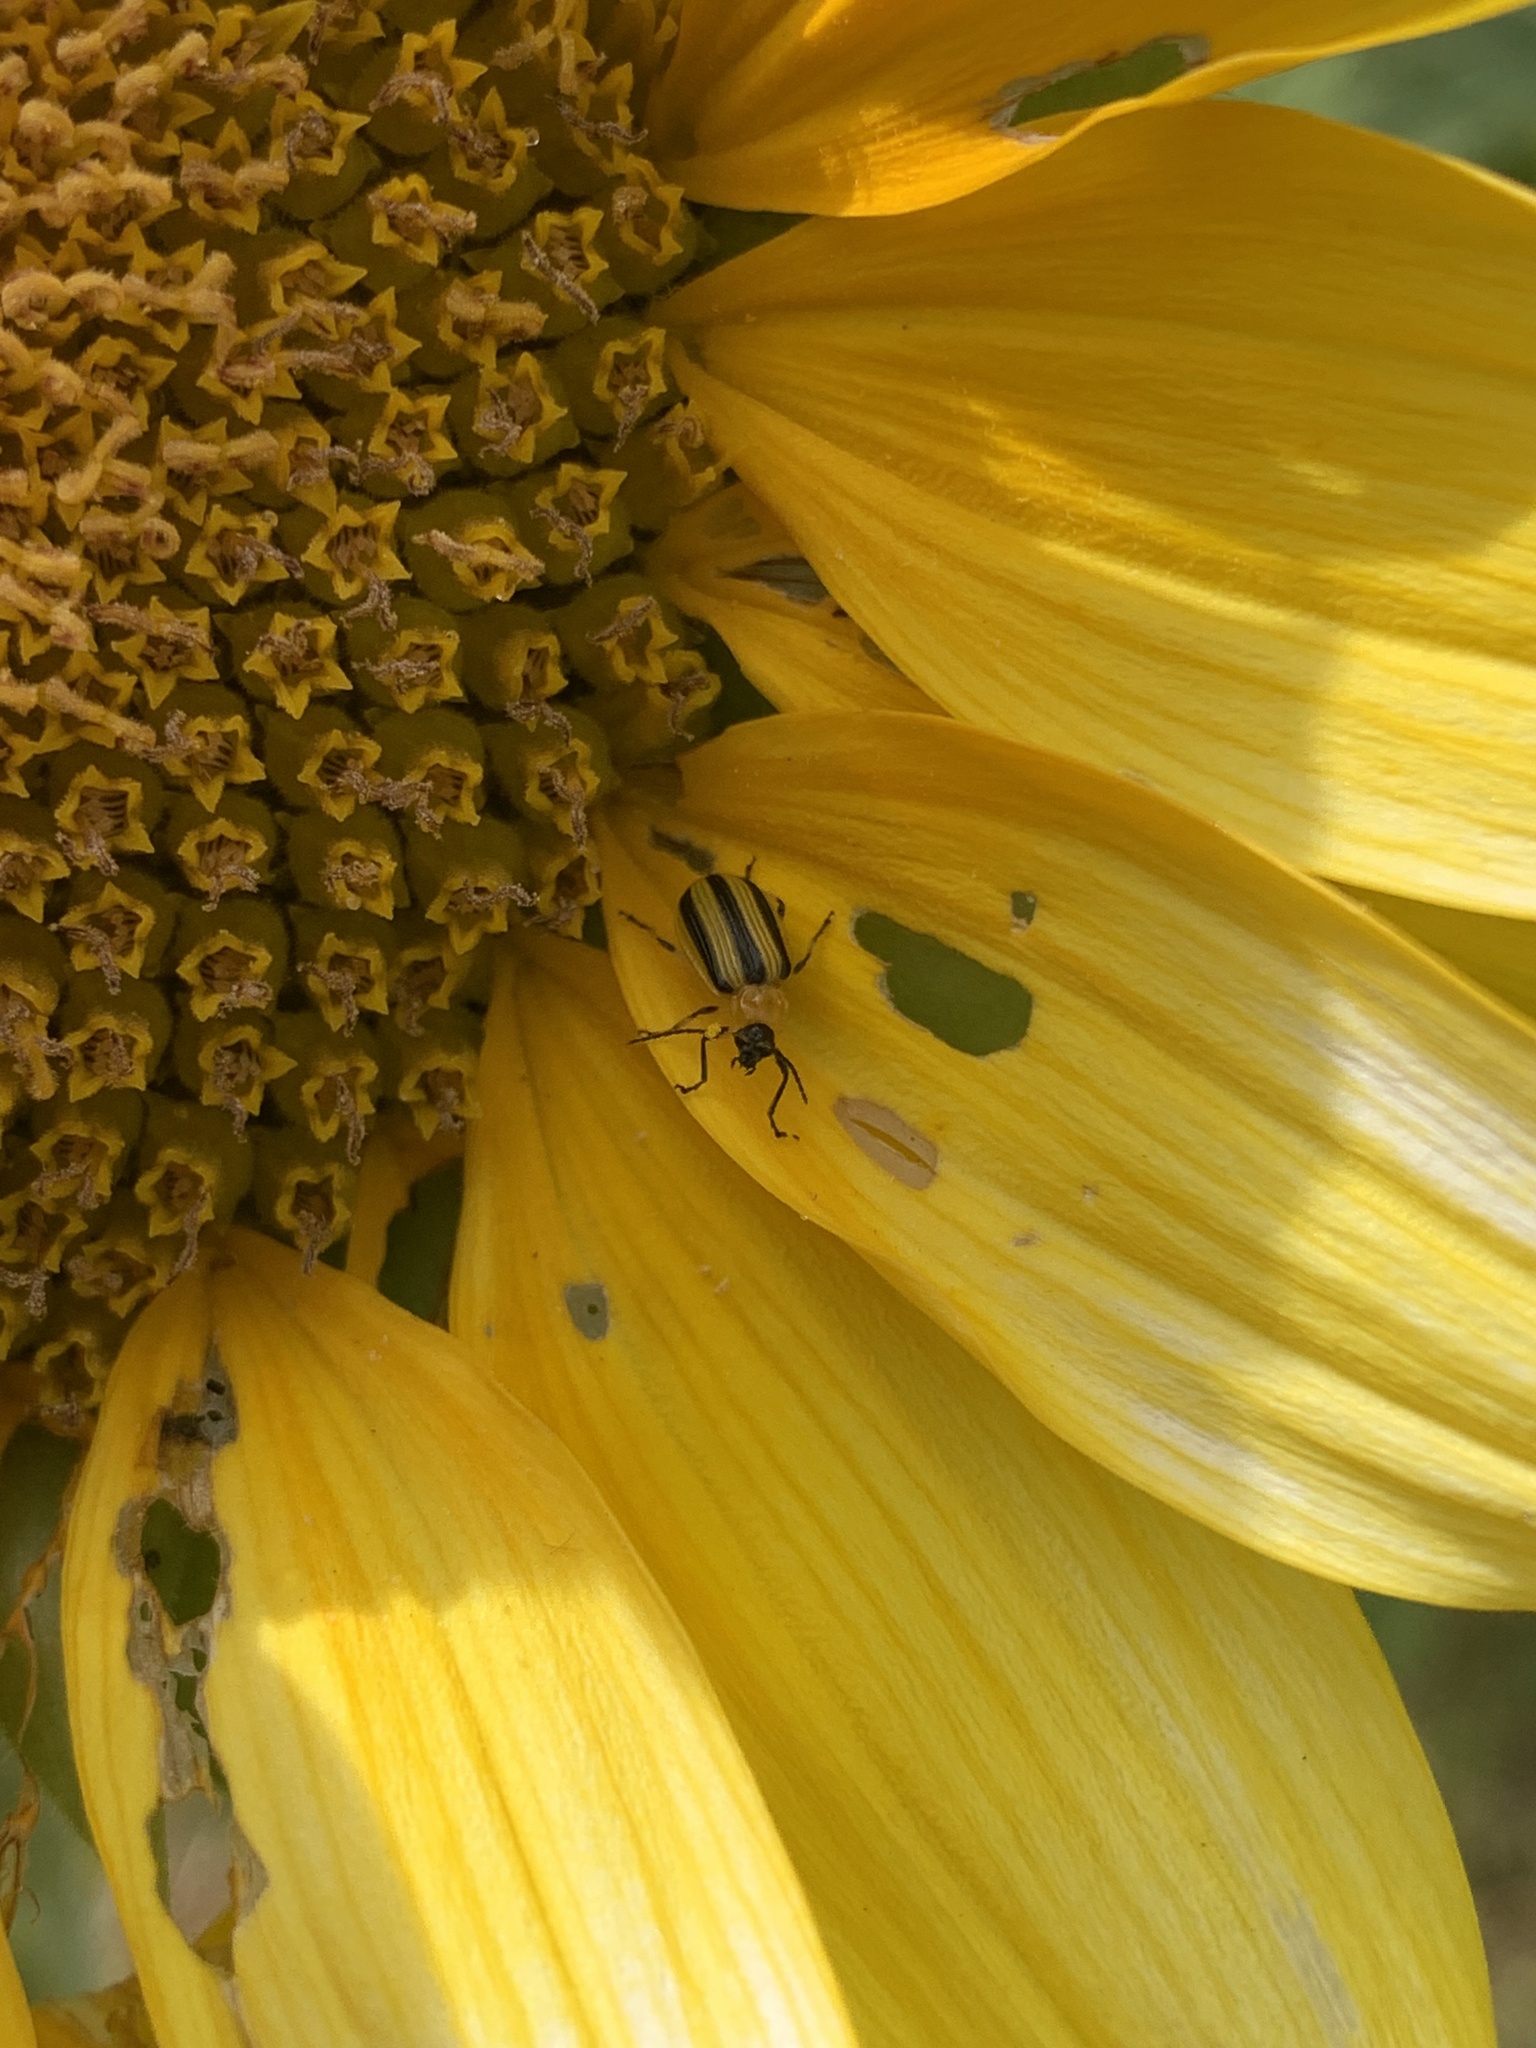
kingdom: Animalia
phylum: Arthropoda
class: Insecta
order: Coleoptera
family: Chrysomelidae
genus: Acalymma
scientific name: Acalymma vittatum
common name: Striped cucumber beetle
